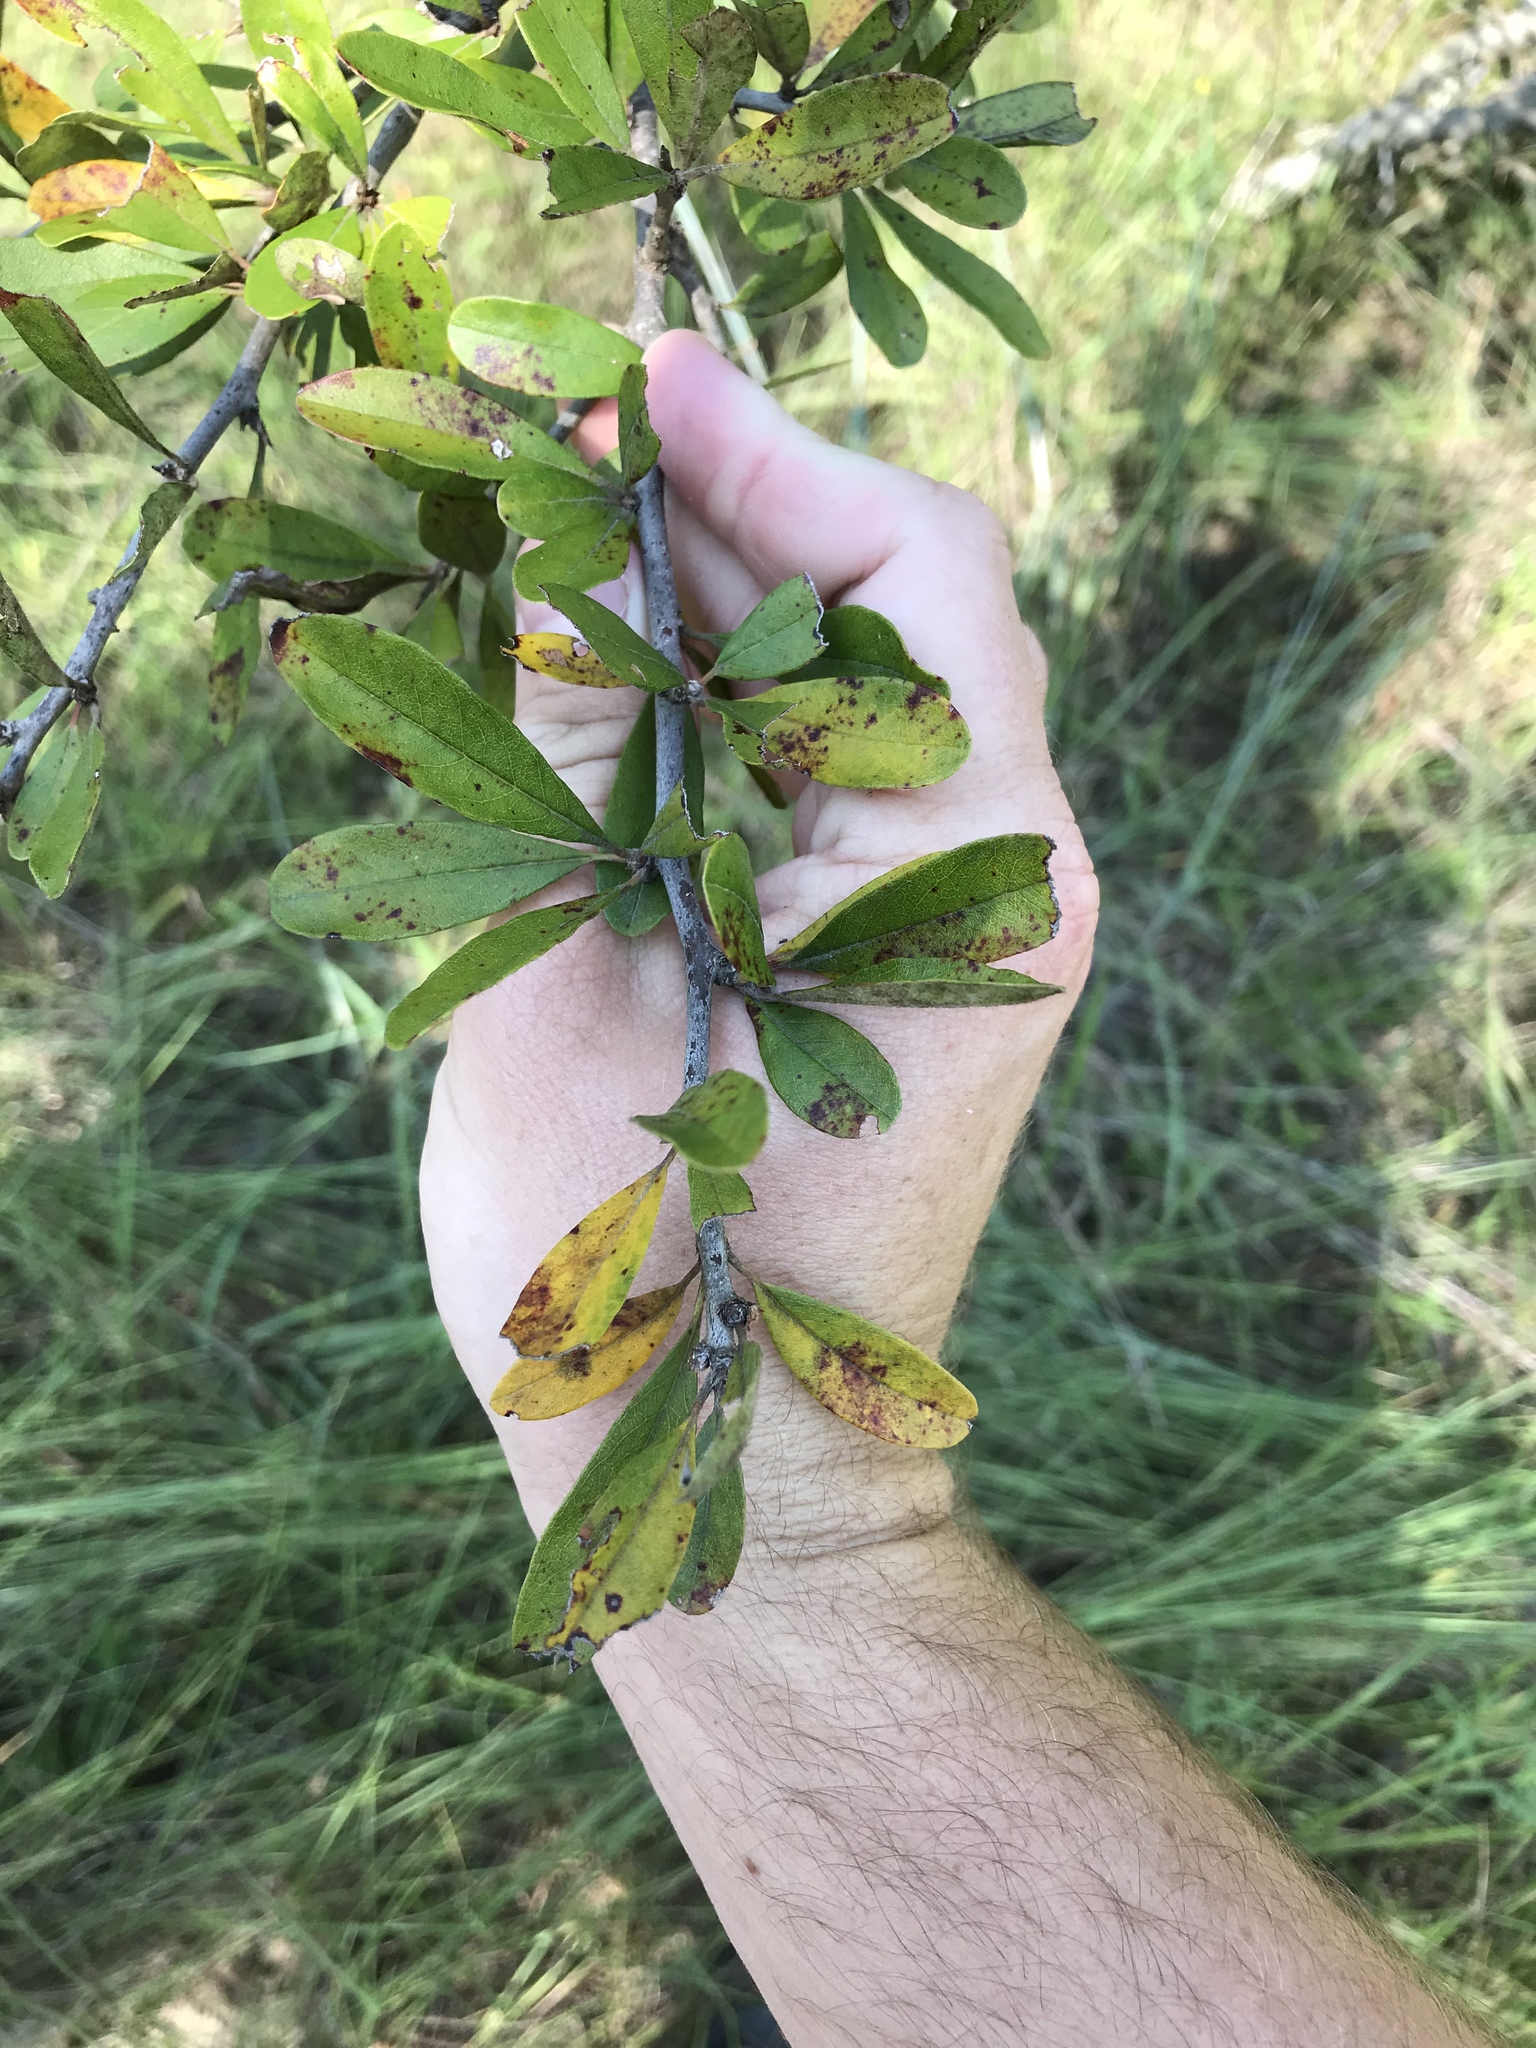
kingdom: Plantae
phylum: Tracheophyta
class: Magnoliopsida
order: Ericales
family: Sapotaceae
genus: Sideroxylon
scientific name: Sideroxylon lanuginosum
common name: Chittamwood
